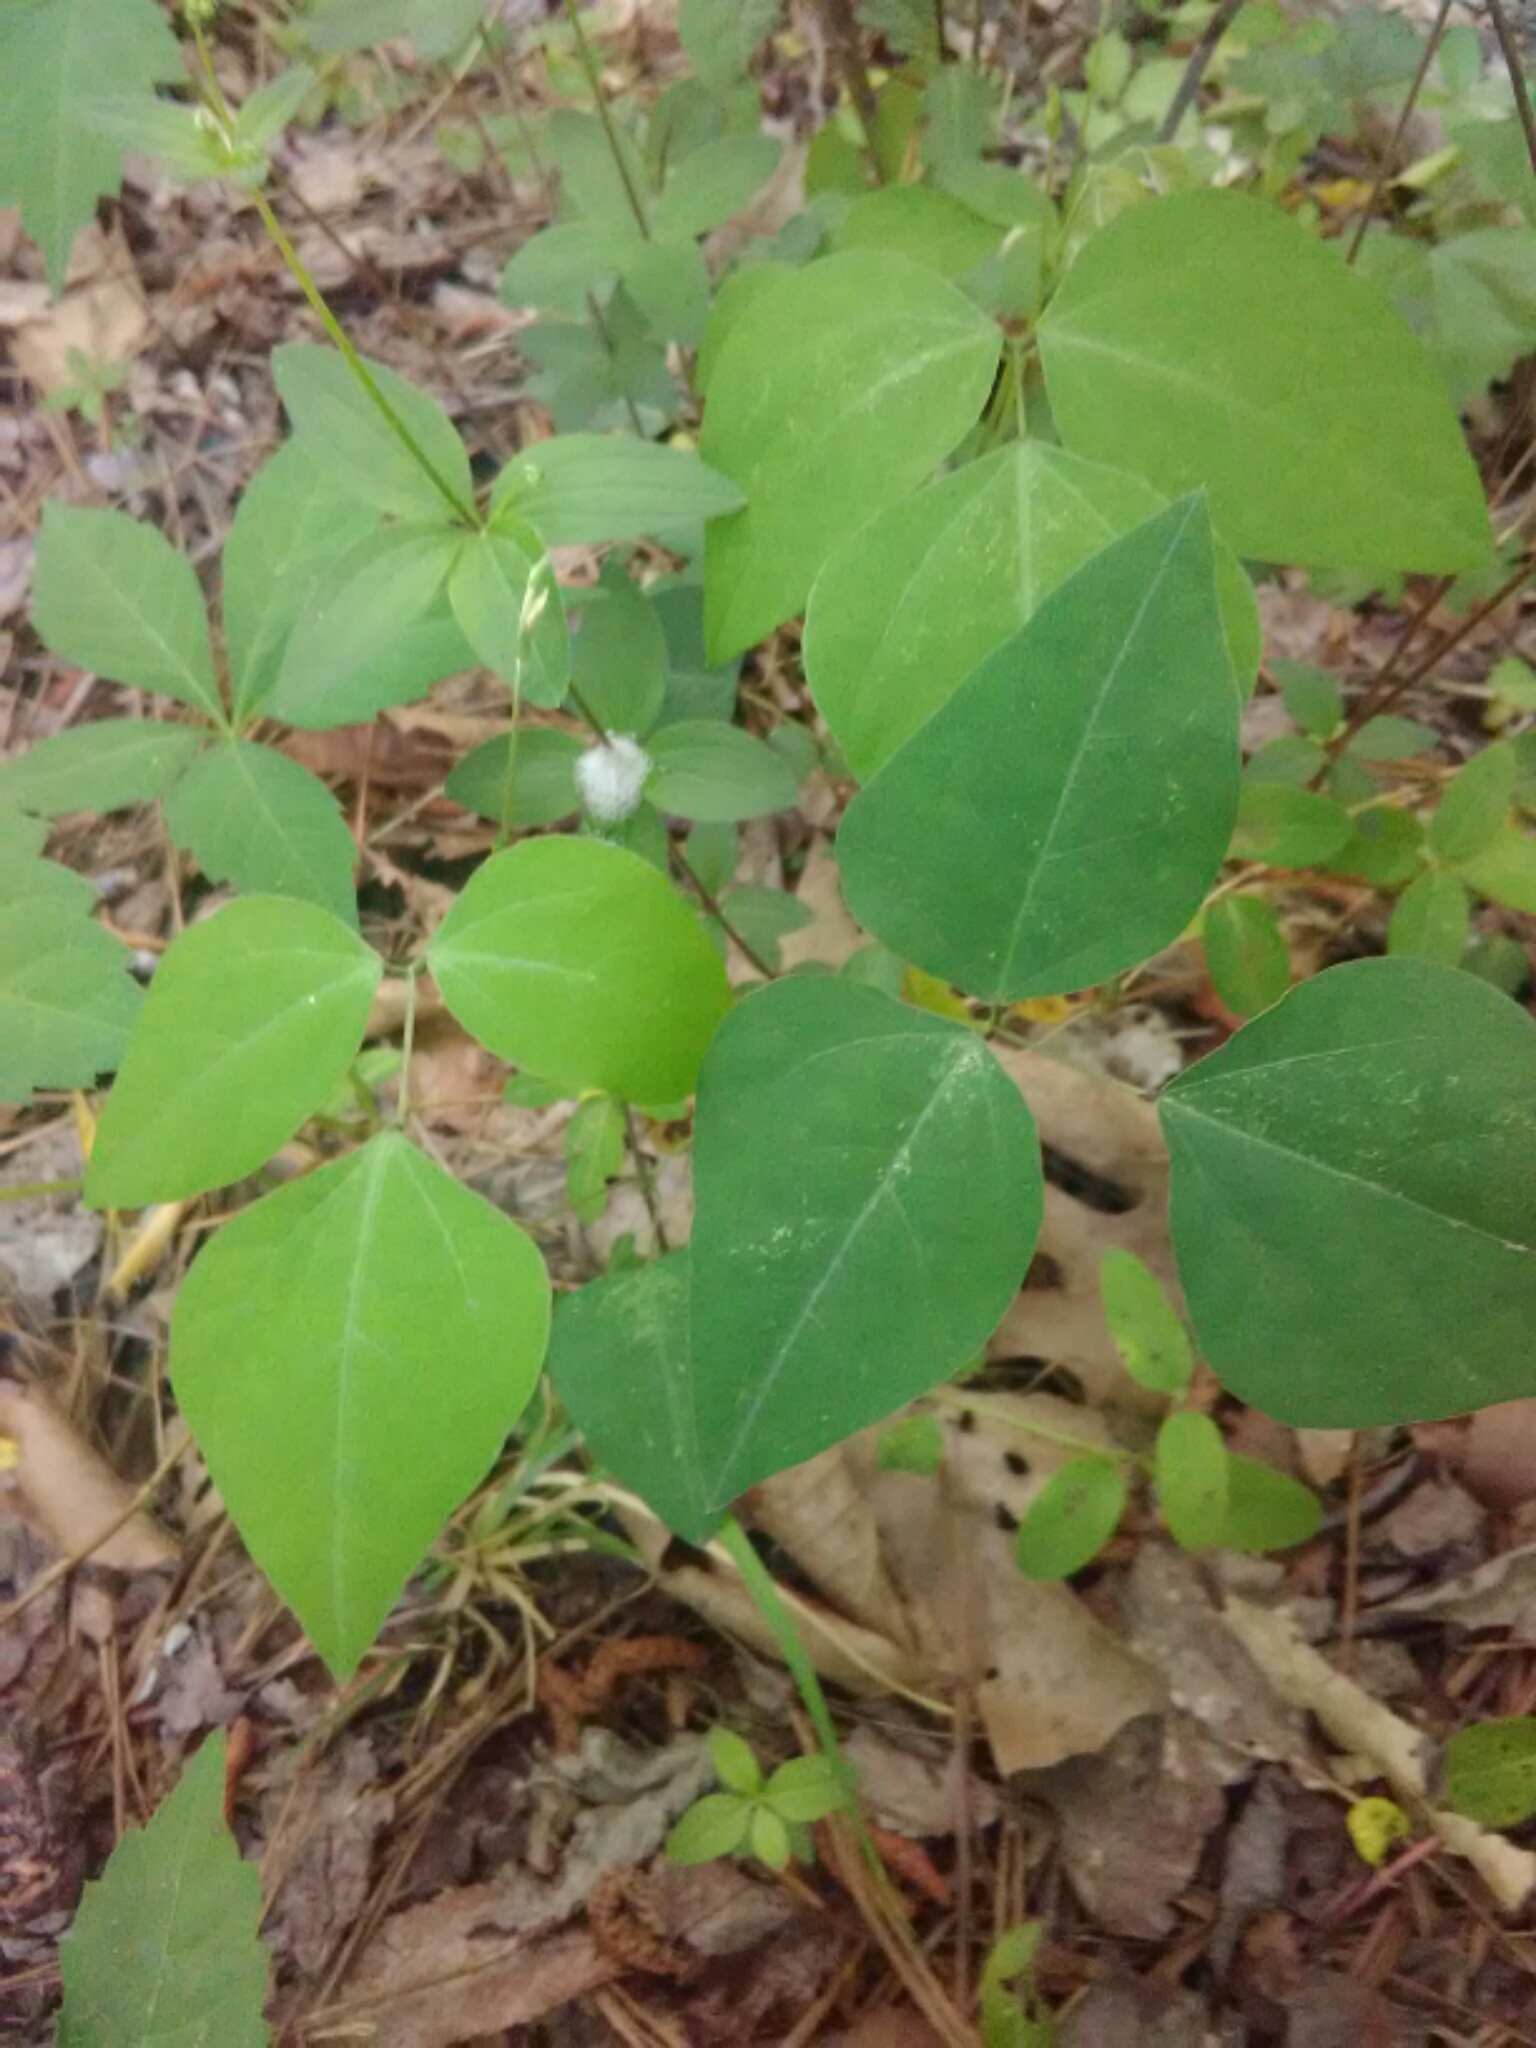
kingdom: Plantae
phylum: Tracheophyta
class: Magnoliopsida
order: Fabales
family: Fabaceae
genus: Amphicarpaea
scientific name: Amphicarpaea bracteata
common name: American hog peanut
